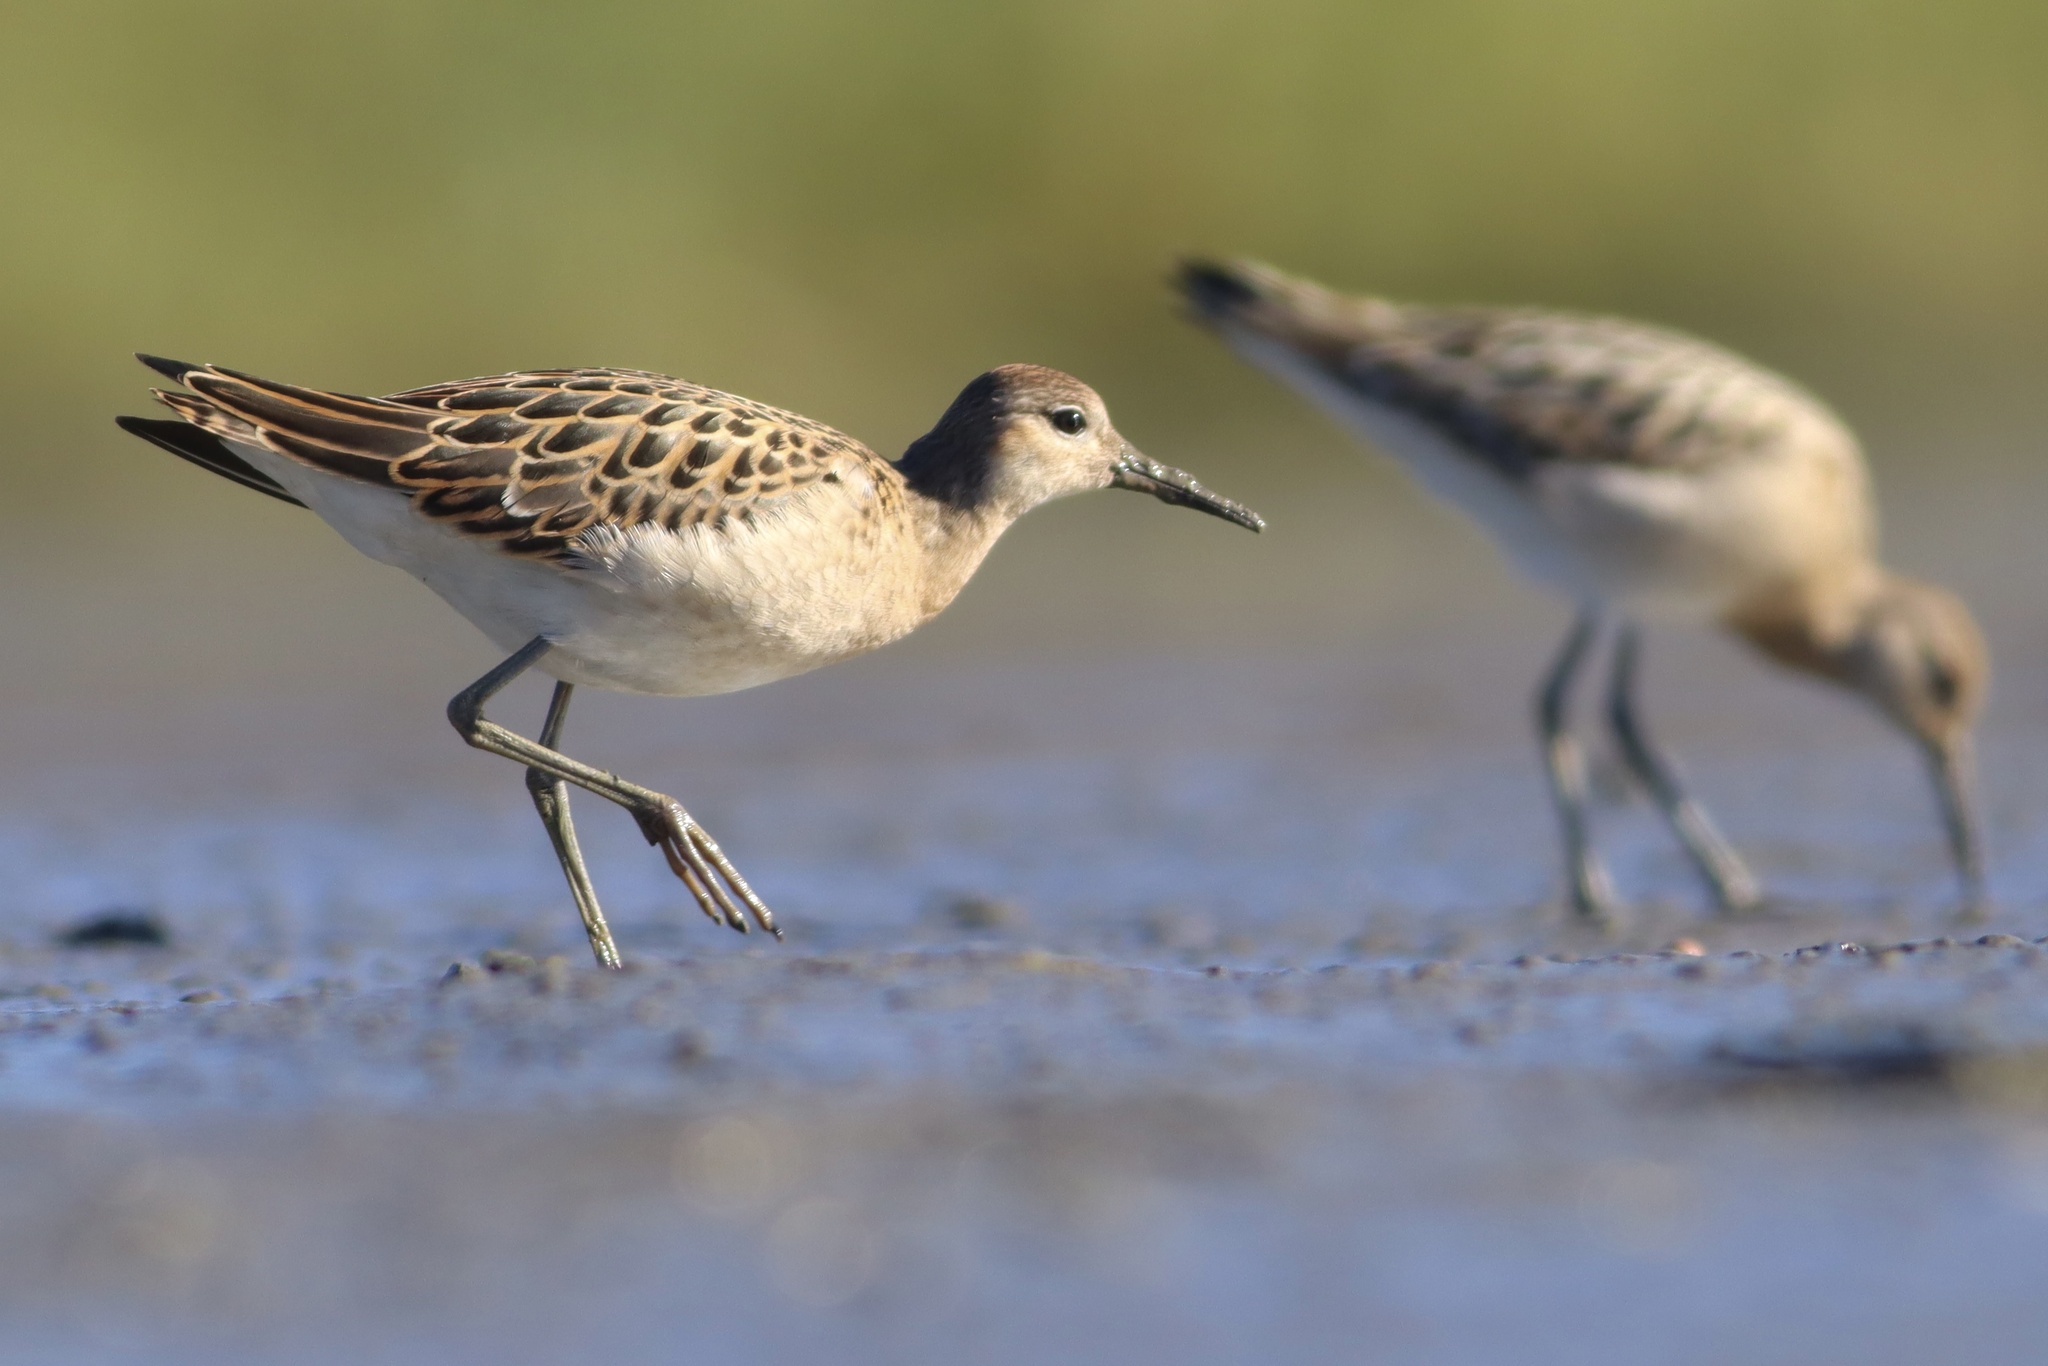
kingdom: Animalia
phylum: Chordata
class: Aves
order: Charadriiformes
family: Scolopacidae
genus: Calidris
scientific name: Calidris pugnax
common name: Ruff
